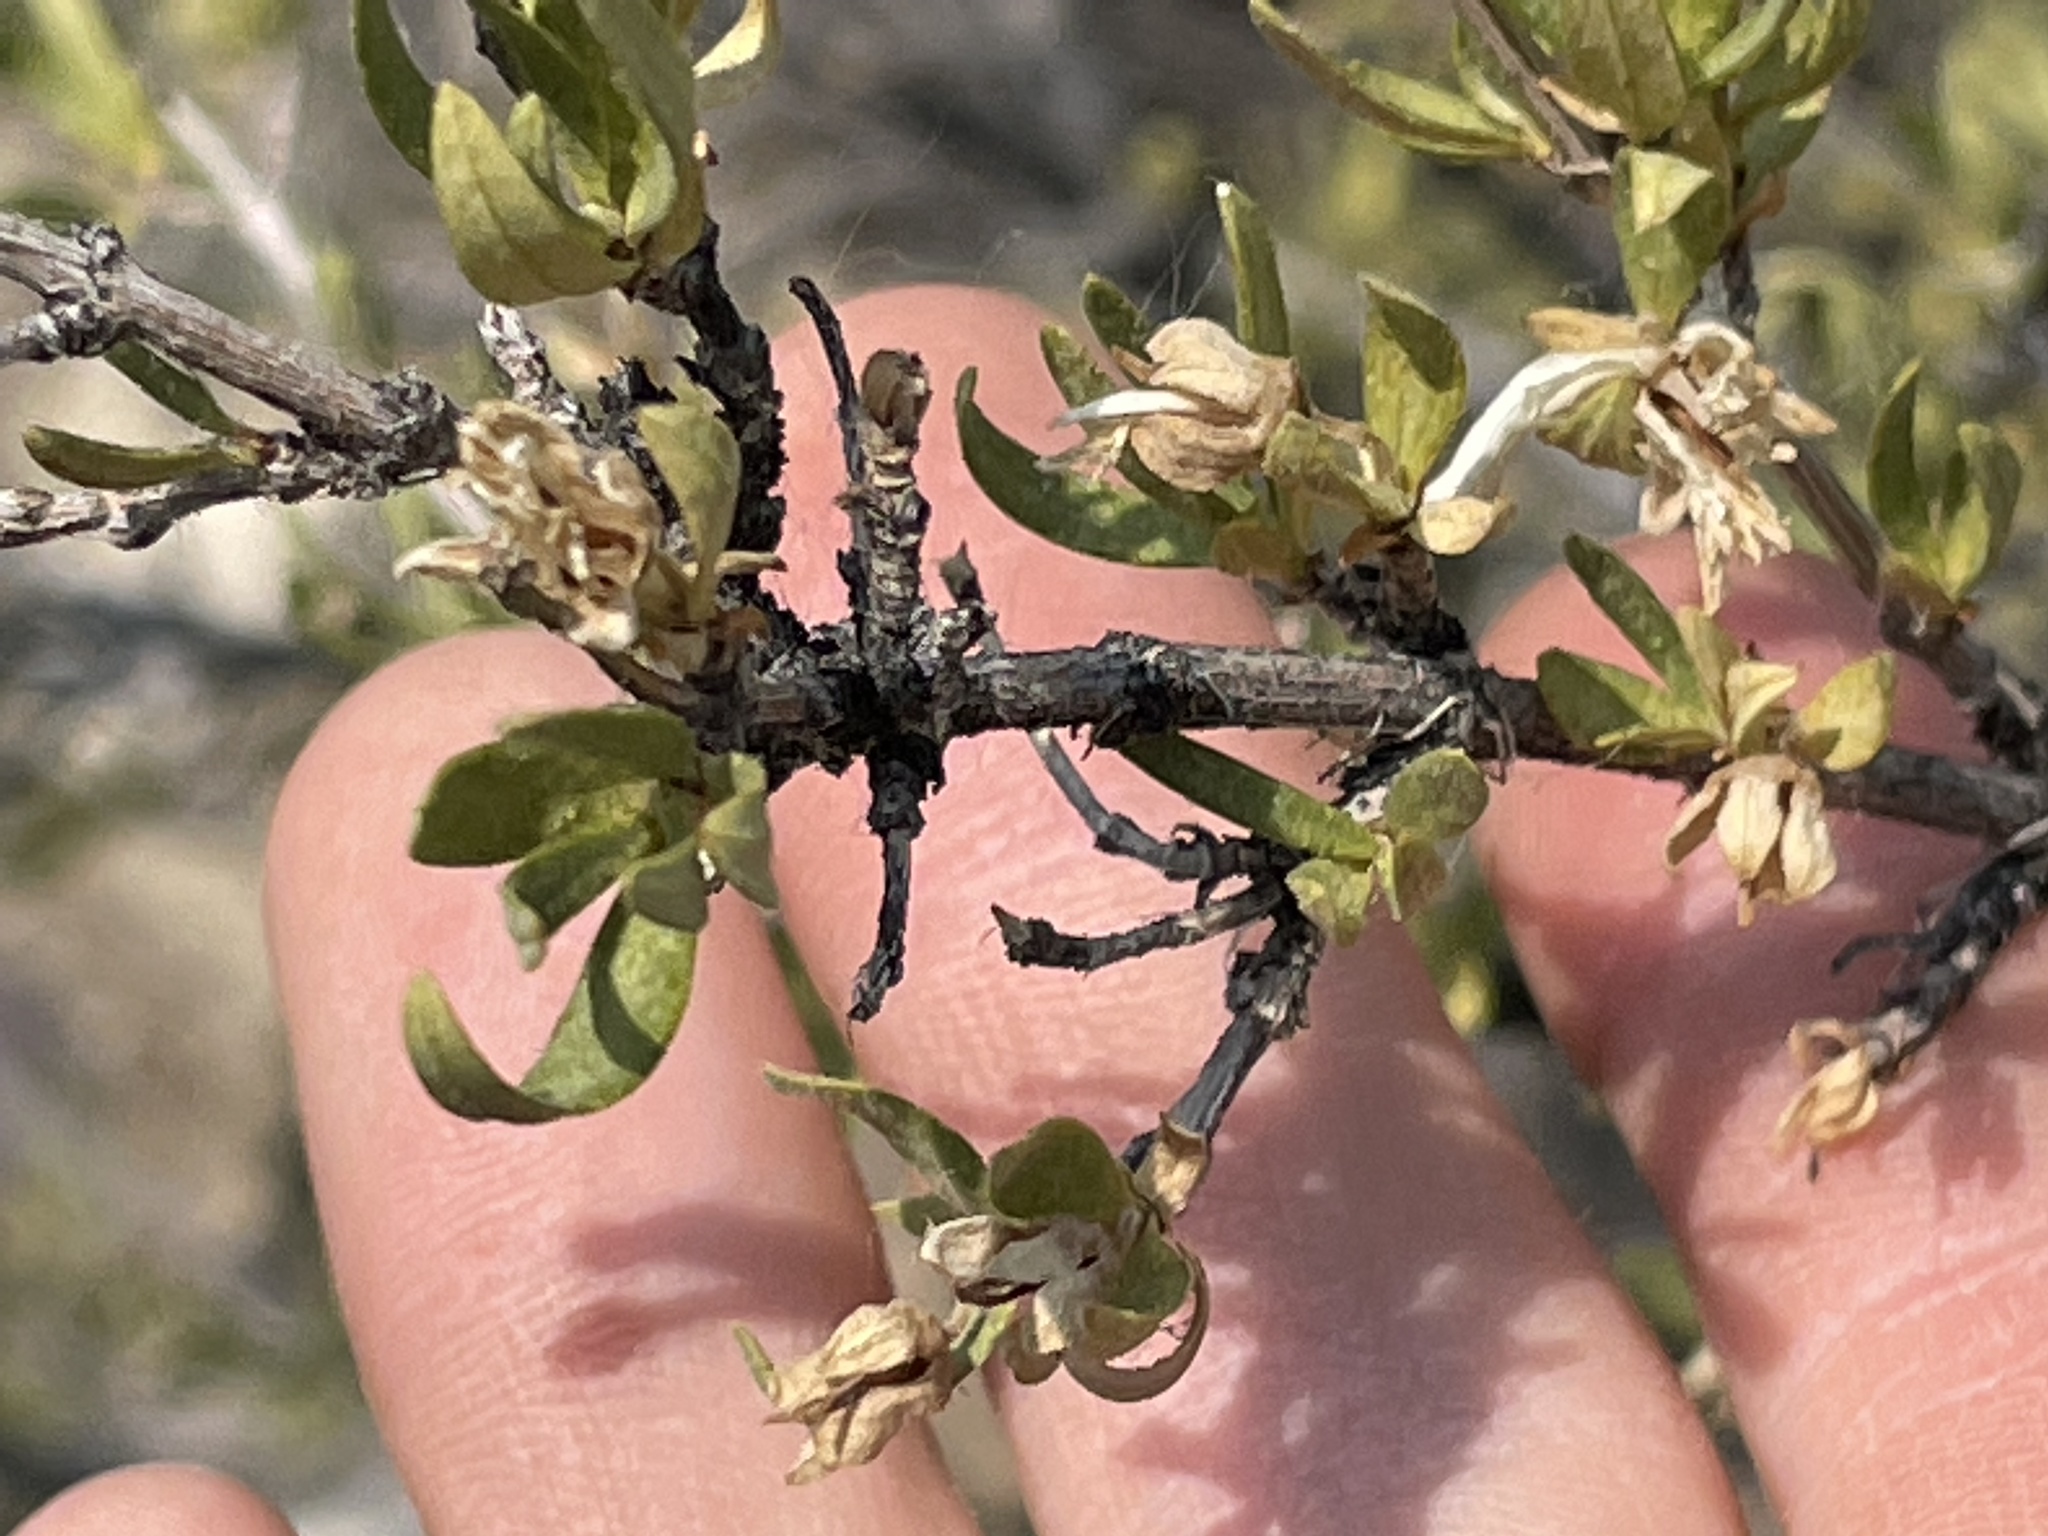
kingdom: Plantae
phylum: Tracheophyta
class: Magnoliopsida
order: Cornales
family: Hydrangeaceae
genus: Fendlera
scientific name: Fendlera rupicola
